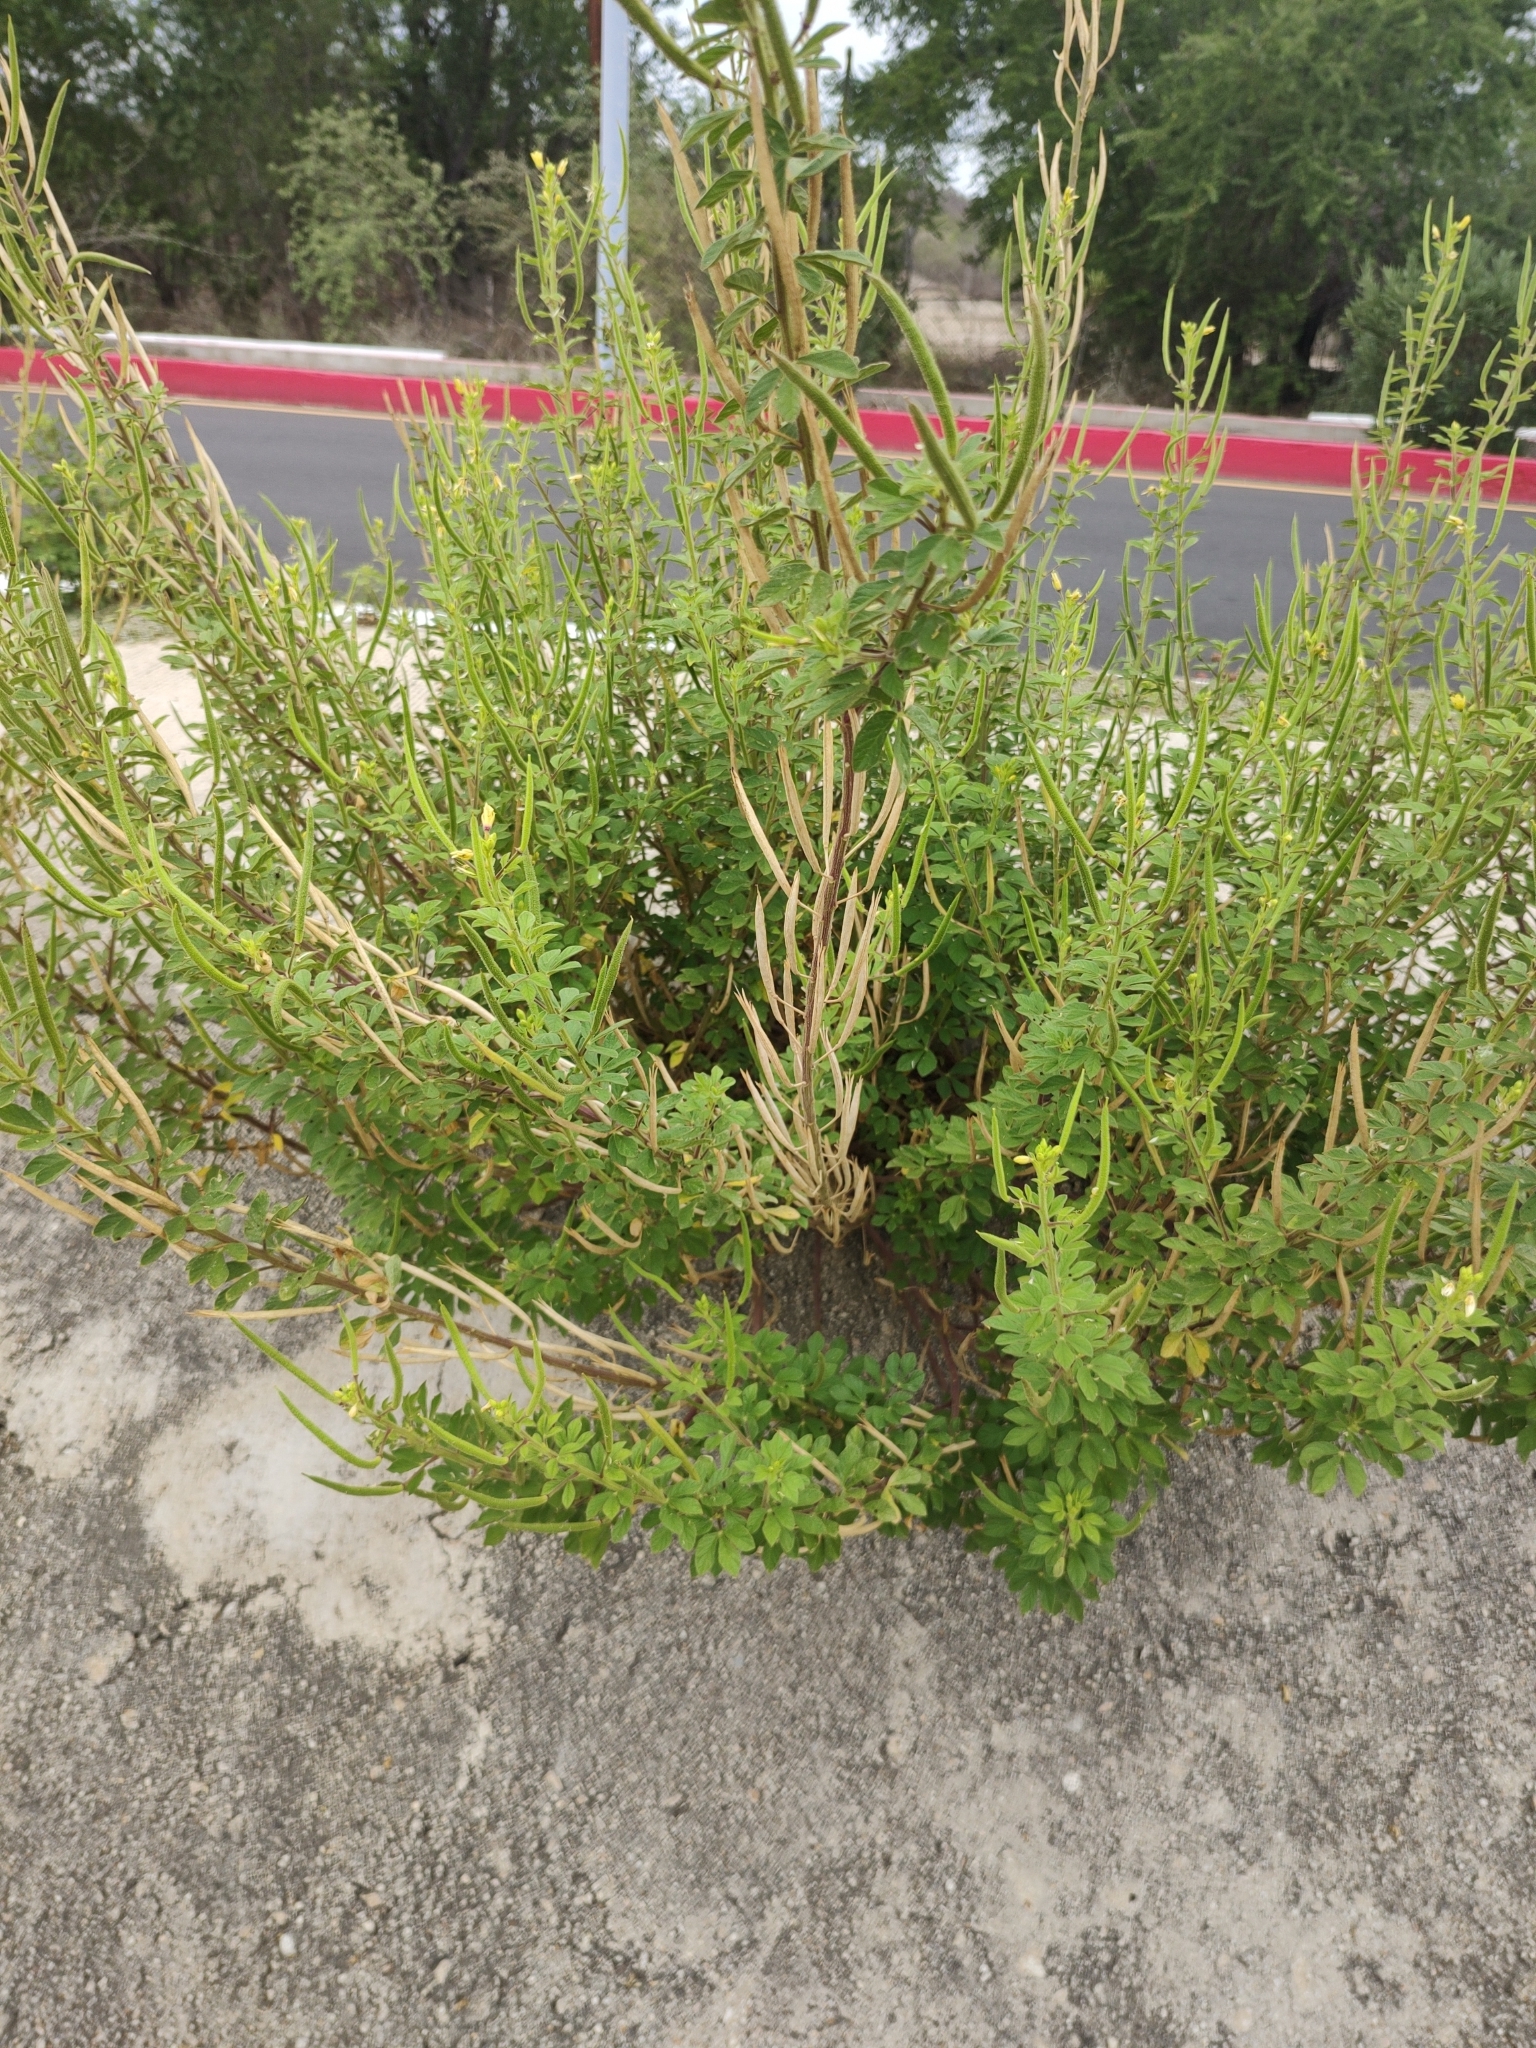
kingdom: Plantae
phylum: Tracheophyta
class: Magnoliopsida
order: Brassicales
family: Cleomaceae
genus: Arivela
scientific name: Arivela viscosa
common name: Asian spiderflower
